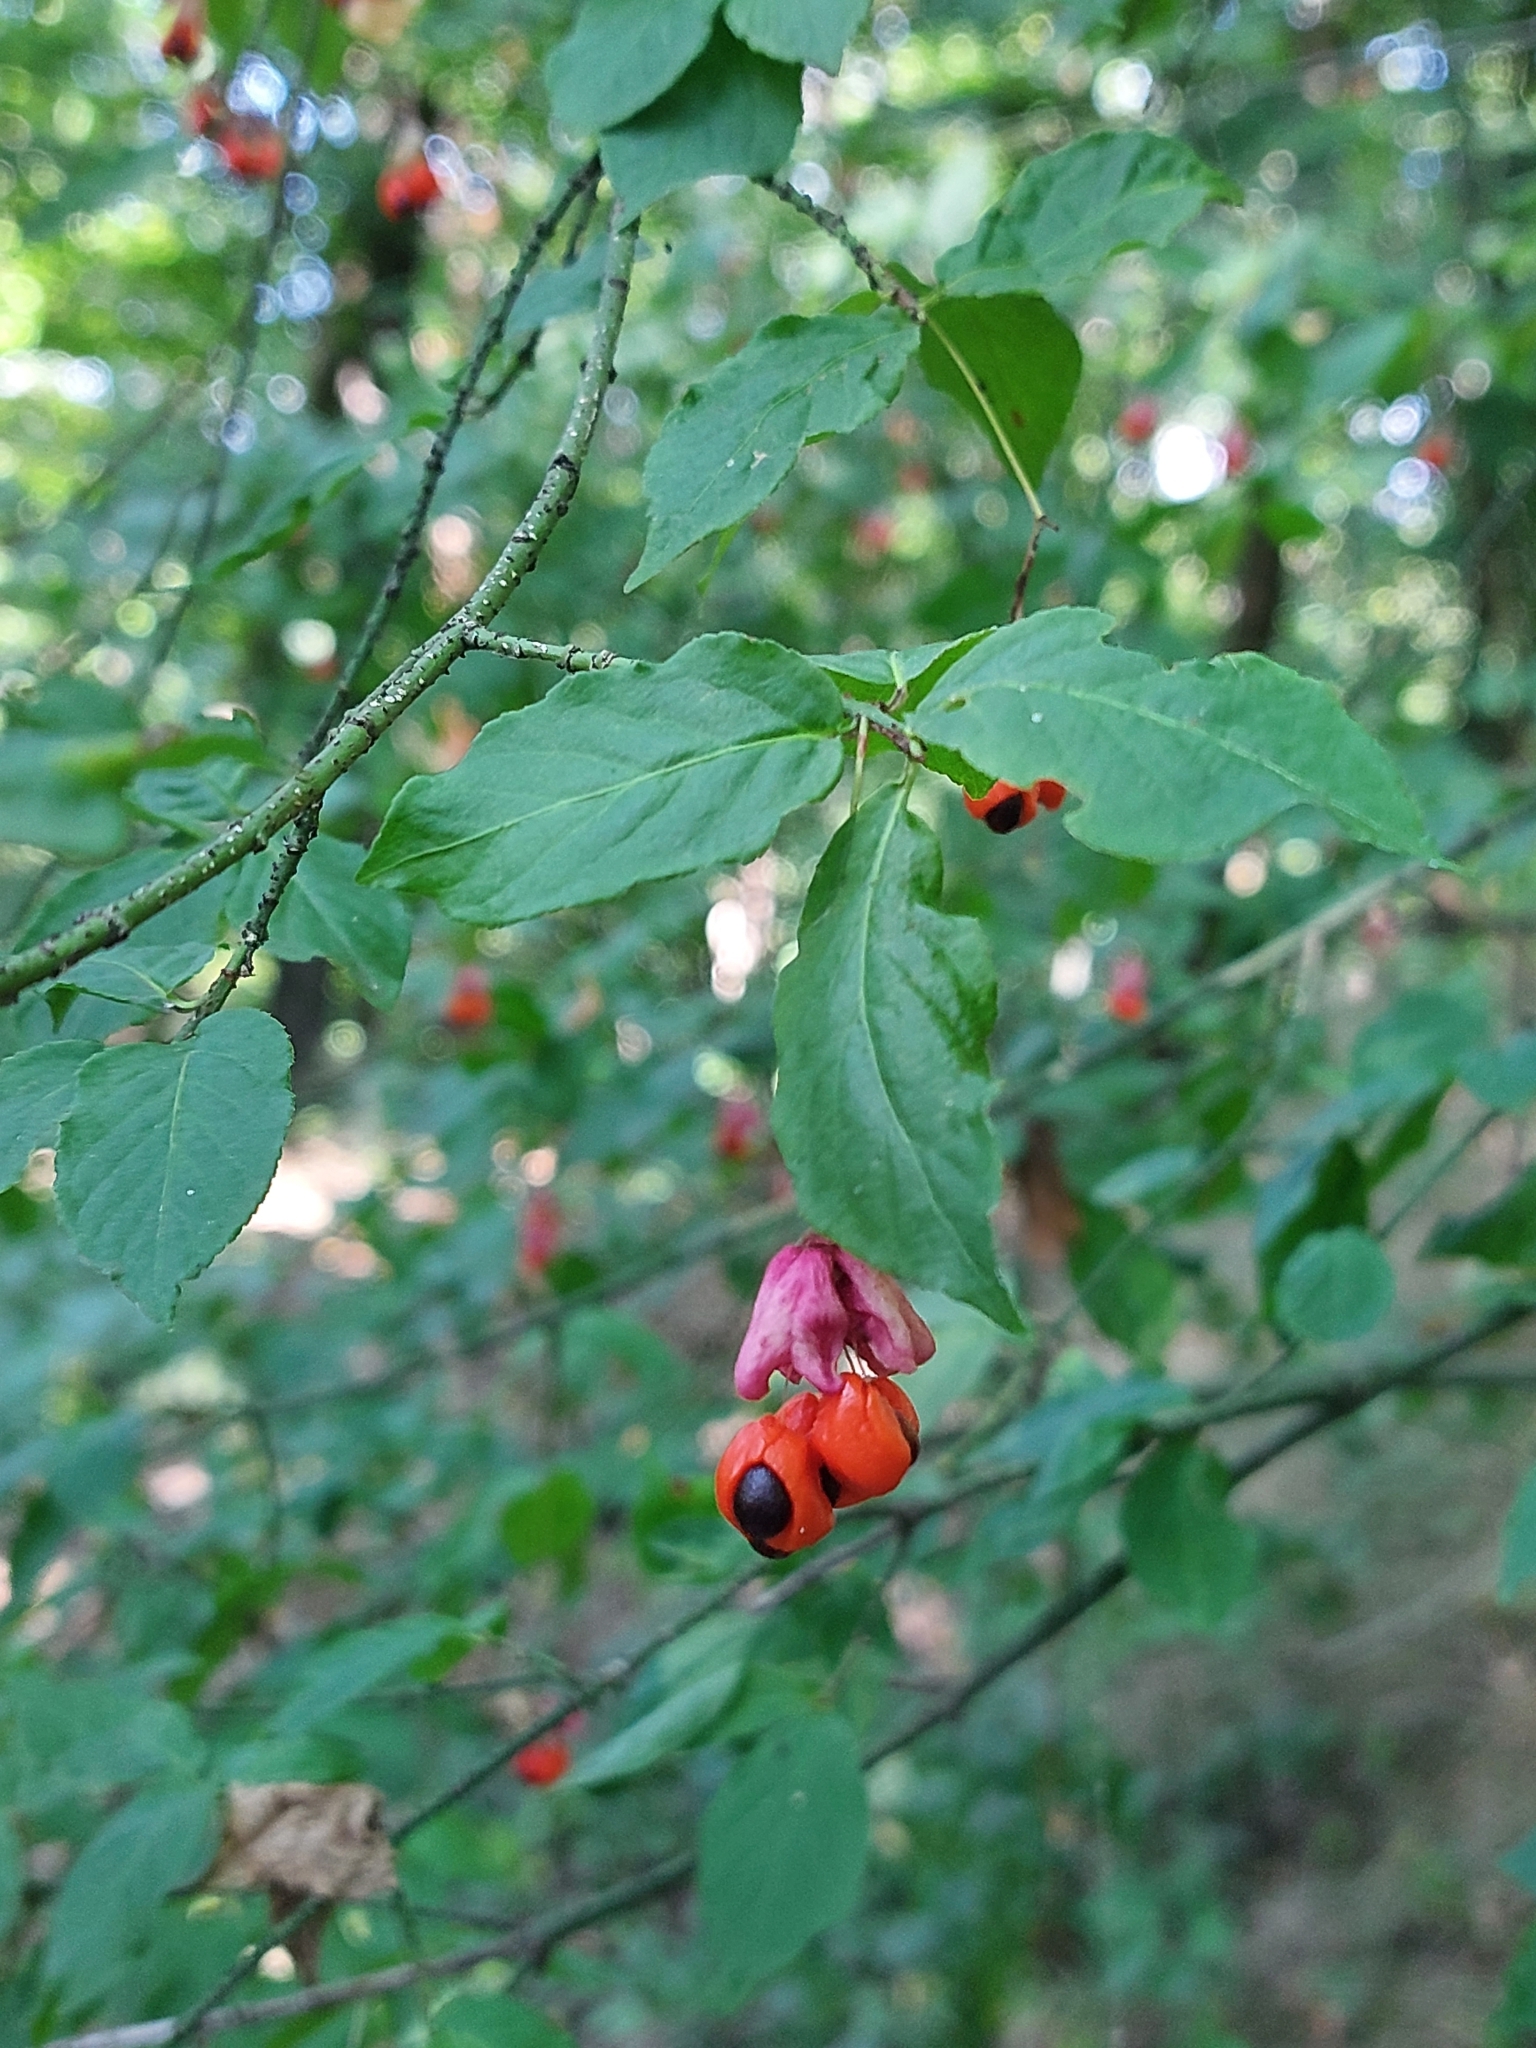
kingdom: Plantae
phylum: Tracheophyta
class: Magnoliopsida
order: Celastrales
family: Celastraceae
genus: Euonymus
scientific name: Euonymus verrucosus
